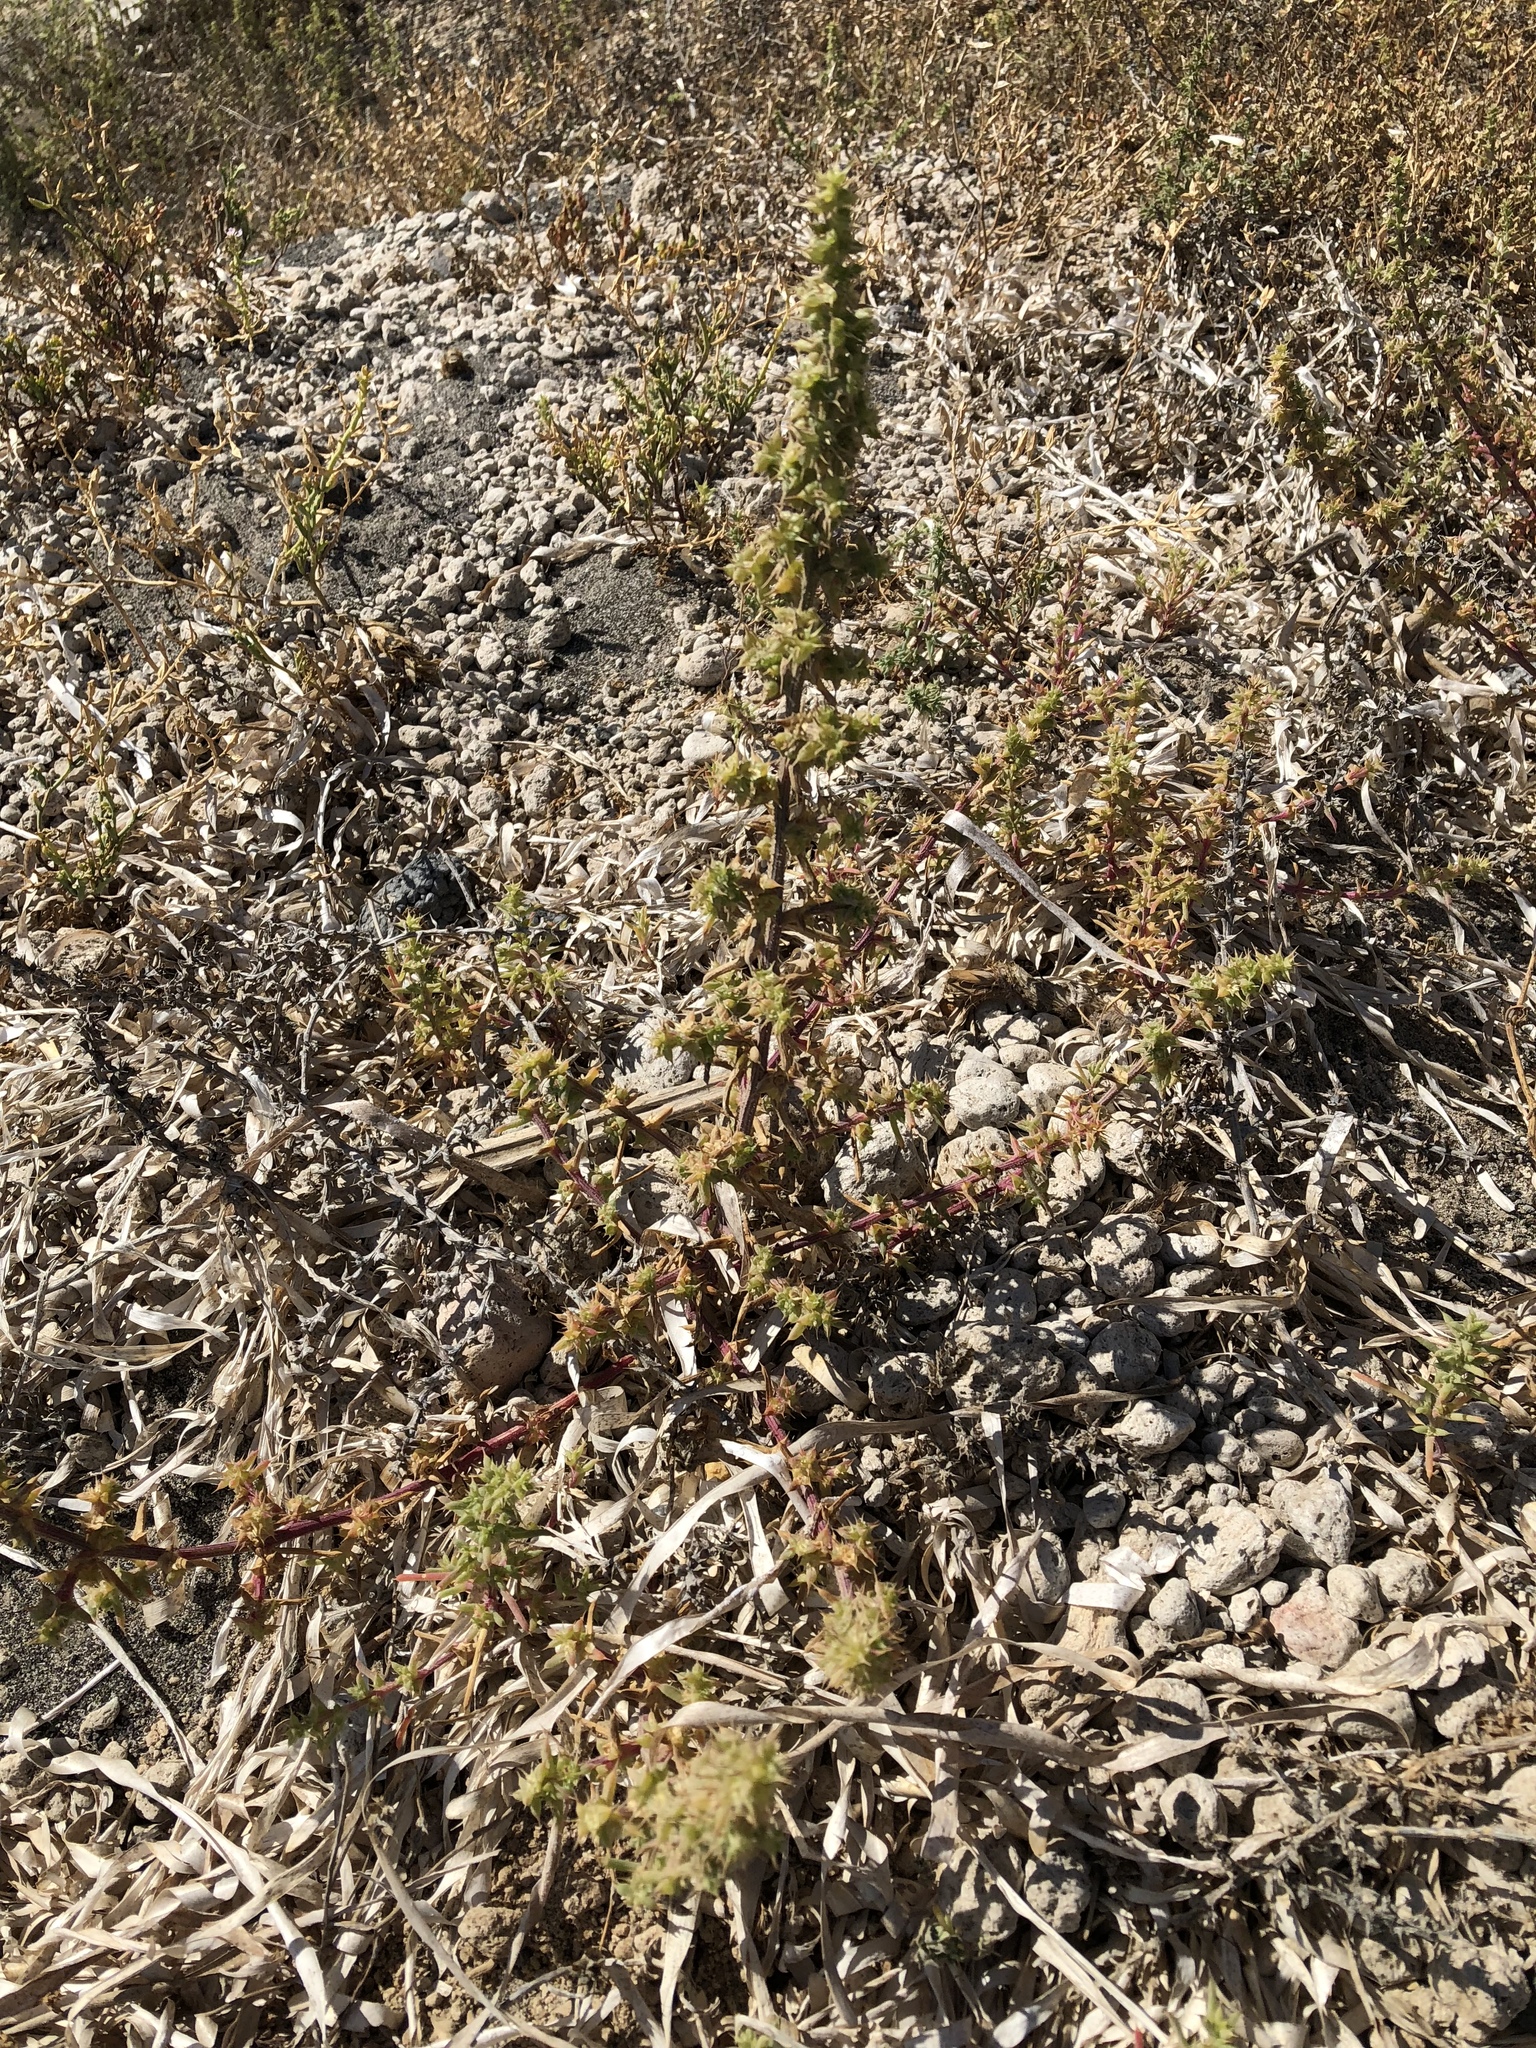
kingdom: Plantae
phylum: Tracheophyta
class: Magnoliopsida
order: Caryophyllales
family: Amaranthaceae
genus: Salsola
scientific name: Salsola kali
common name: Saltwort
